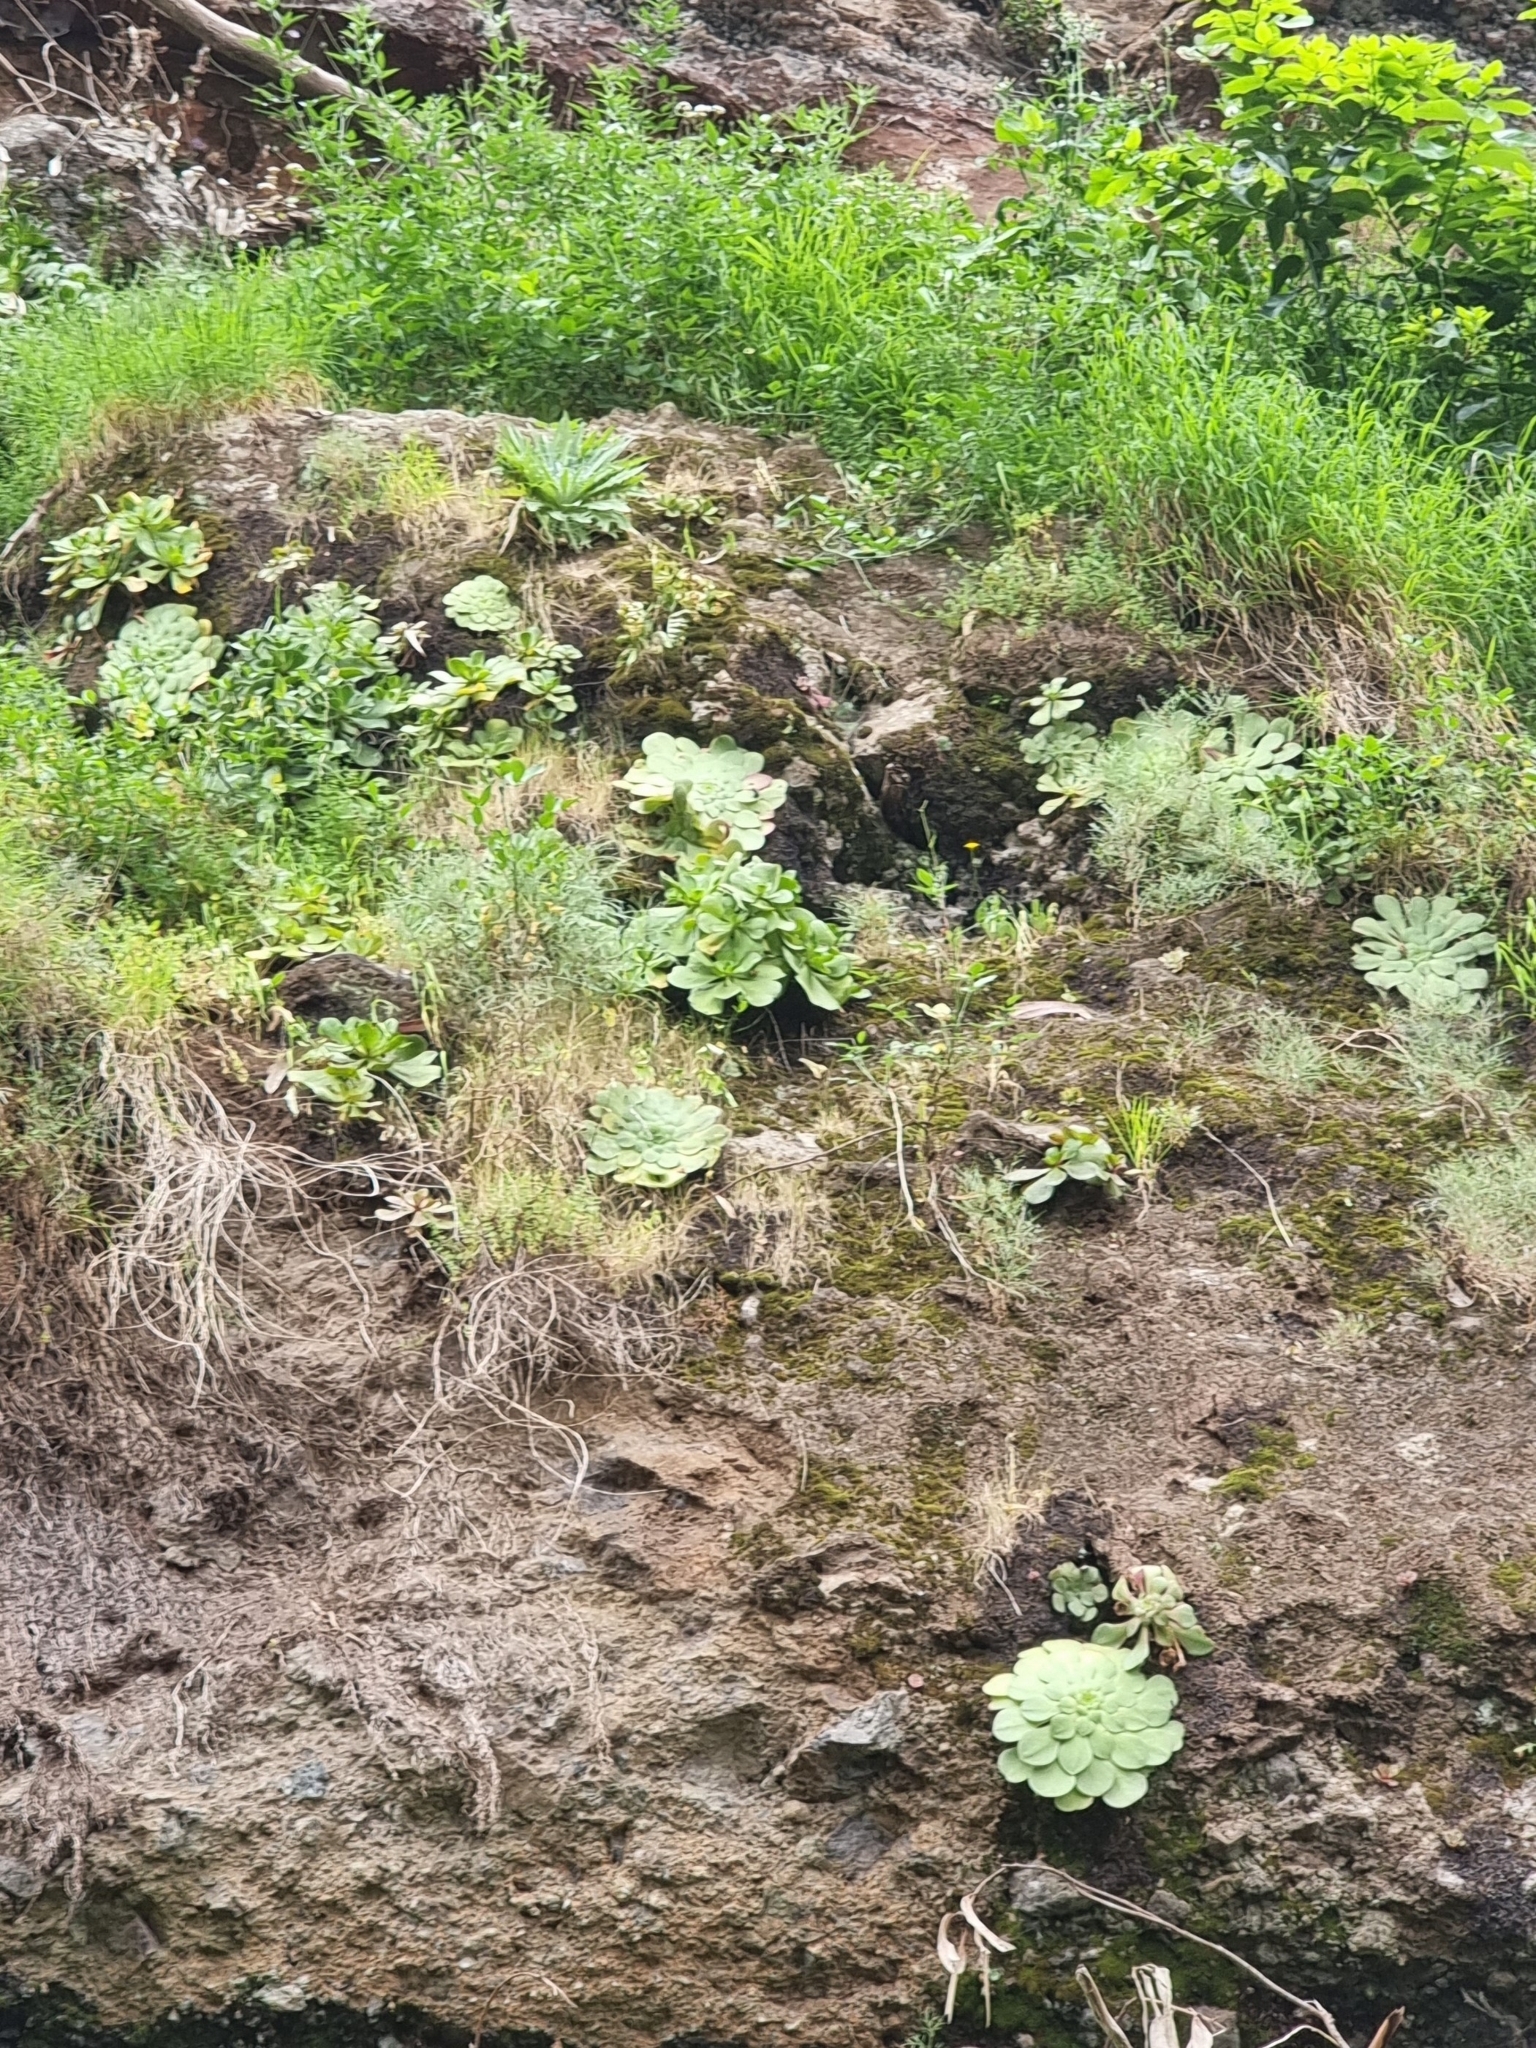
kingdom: Plantae
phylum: Tracheophyta
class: Magnoliopsida
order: Saxifragales
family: Crassulaceae
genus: Aeonium
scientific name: Aeonium glandulosum
